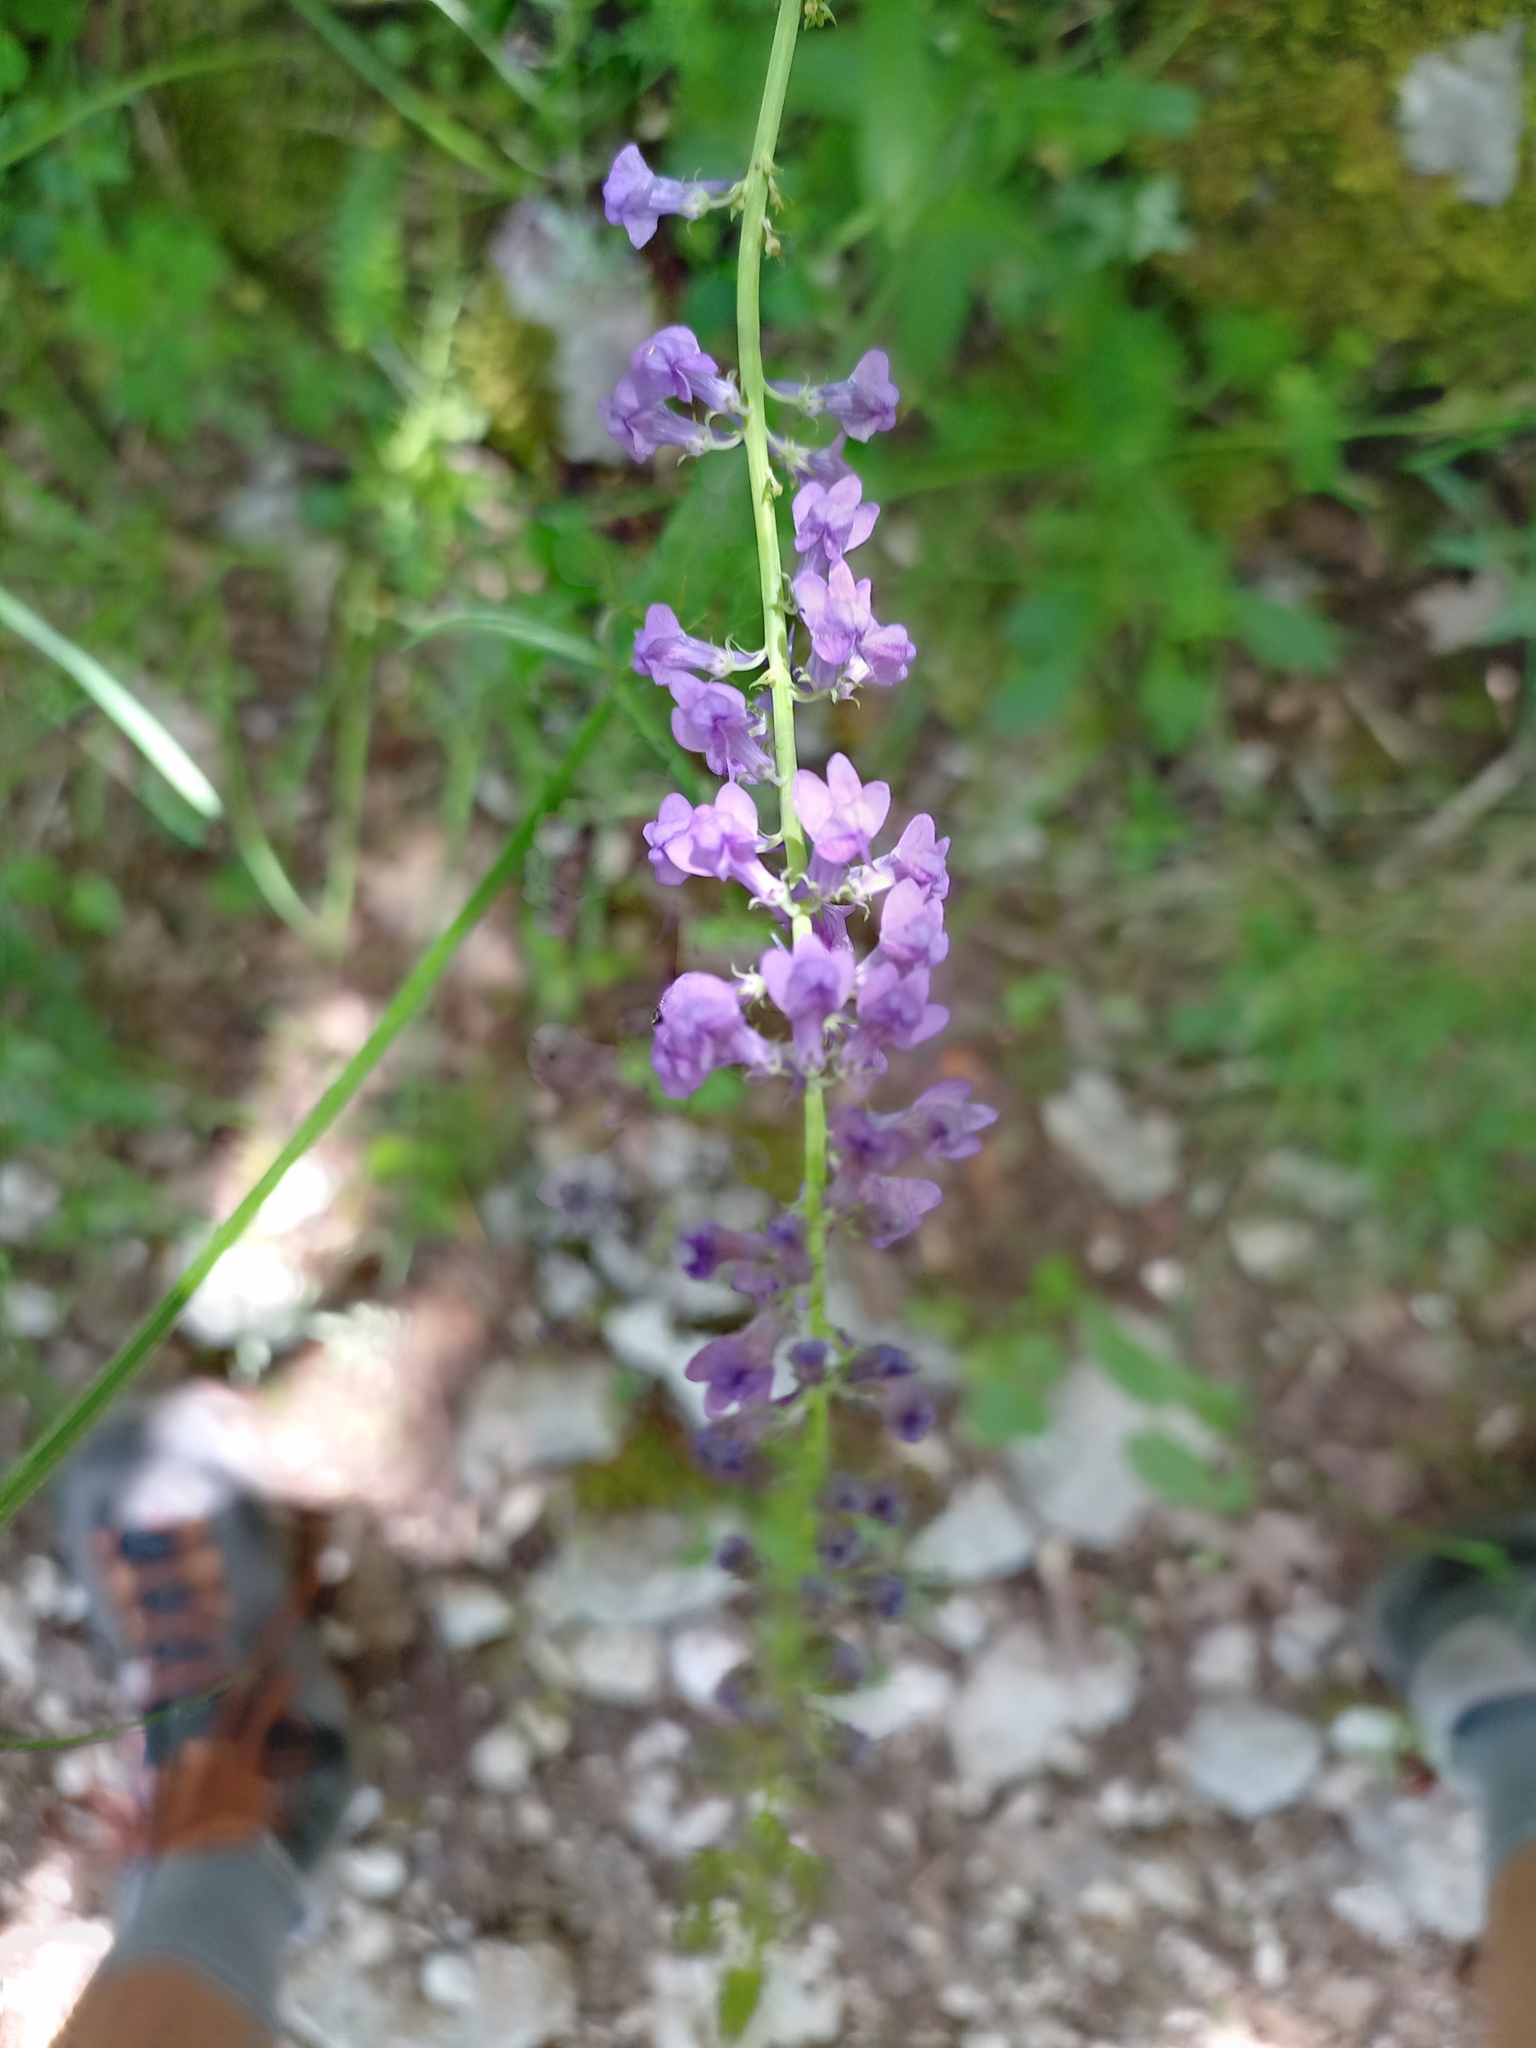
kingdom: Plantae
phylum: Tracheophyta
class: Magnoliopsida
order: Lamiales
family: Plantaginaceae
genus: Linaria
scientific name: Linaria purpurea
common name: Purple toadflax
